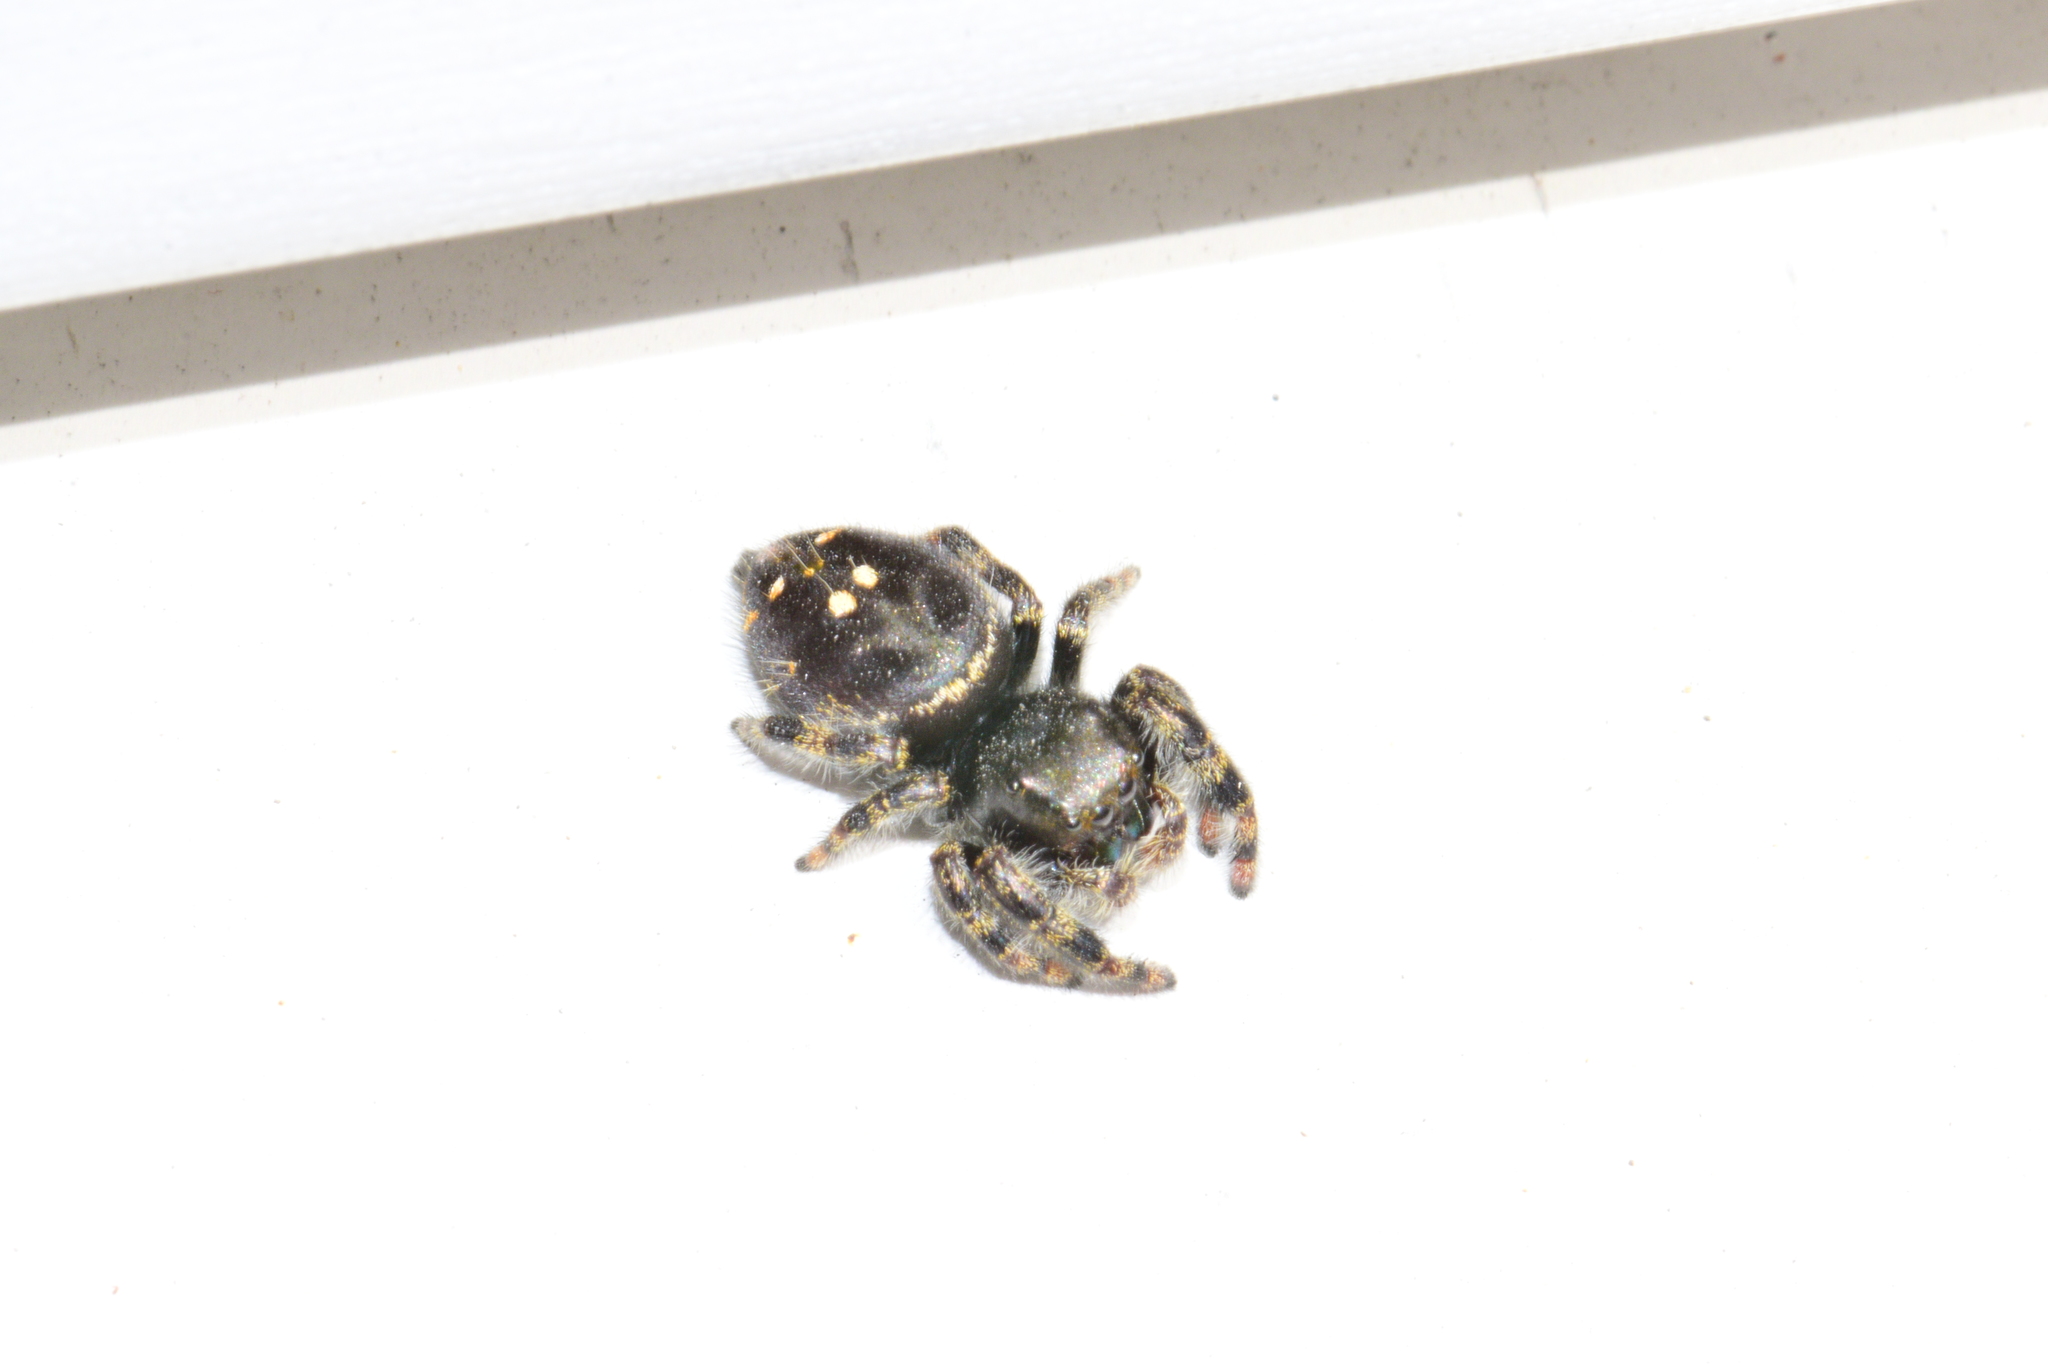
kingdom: Animalia
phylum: Arthropoda
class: Arachnida
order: Araneae
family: Salticidae
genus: Phidippus
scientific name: Phidippus audax
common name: Bold jumper
